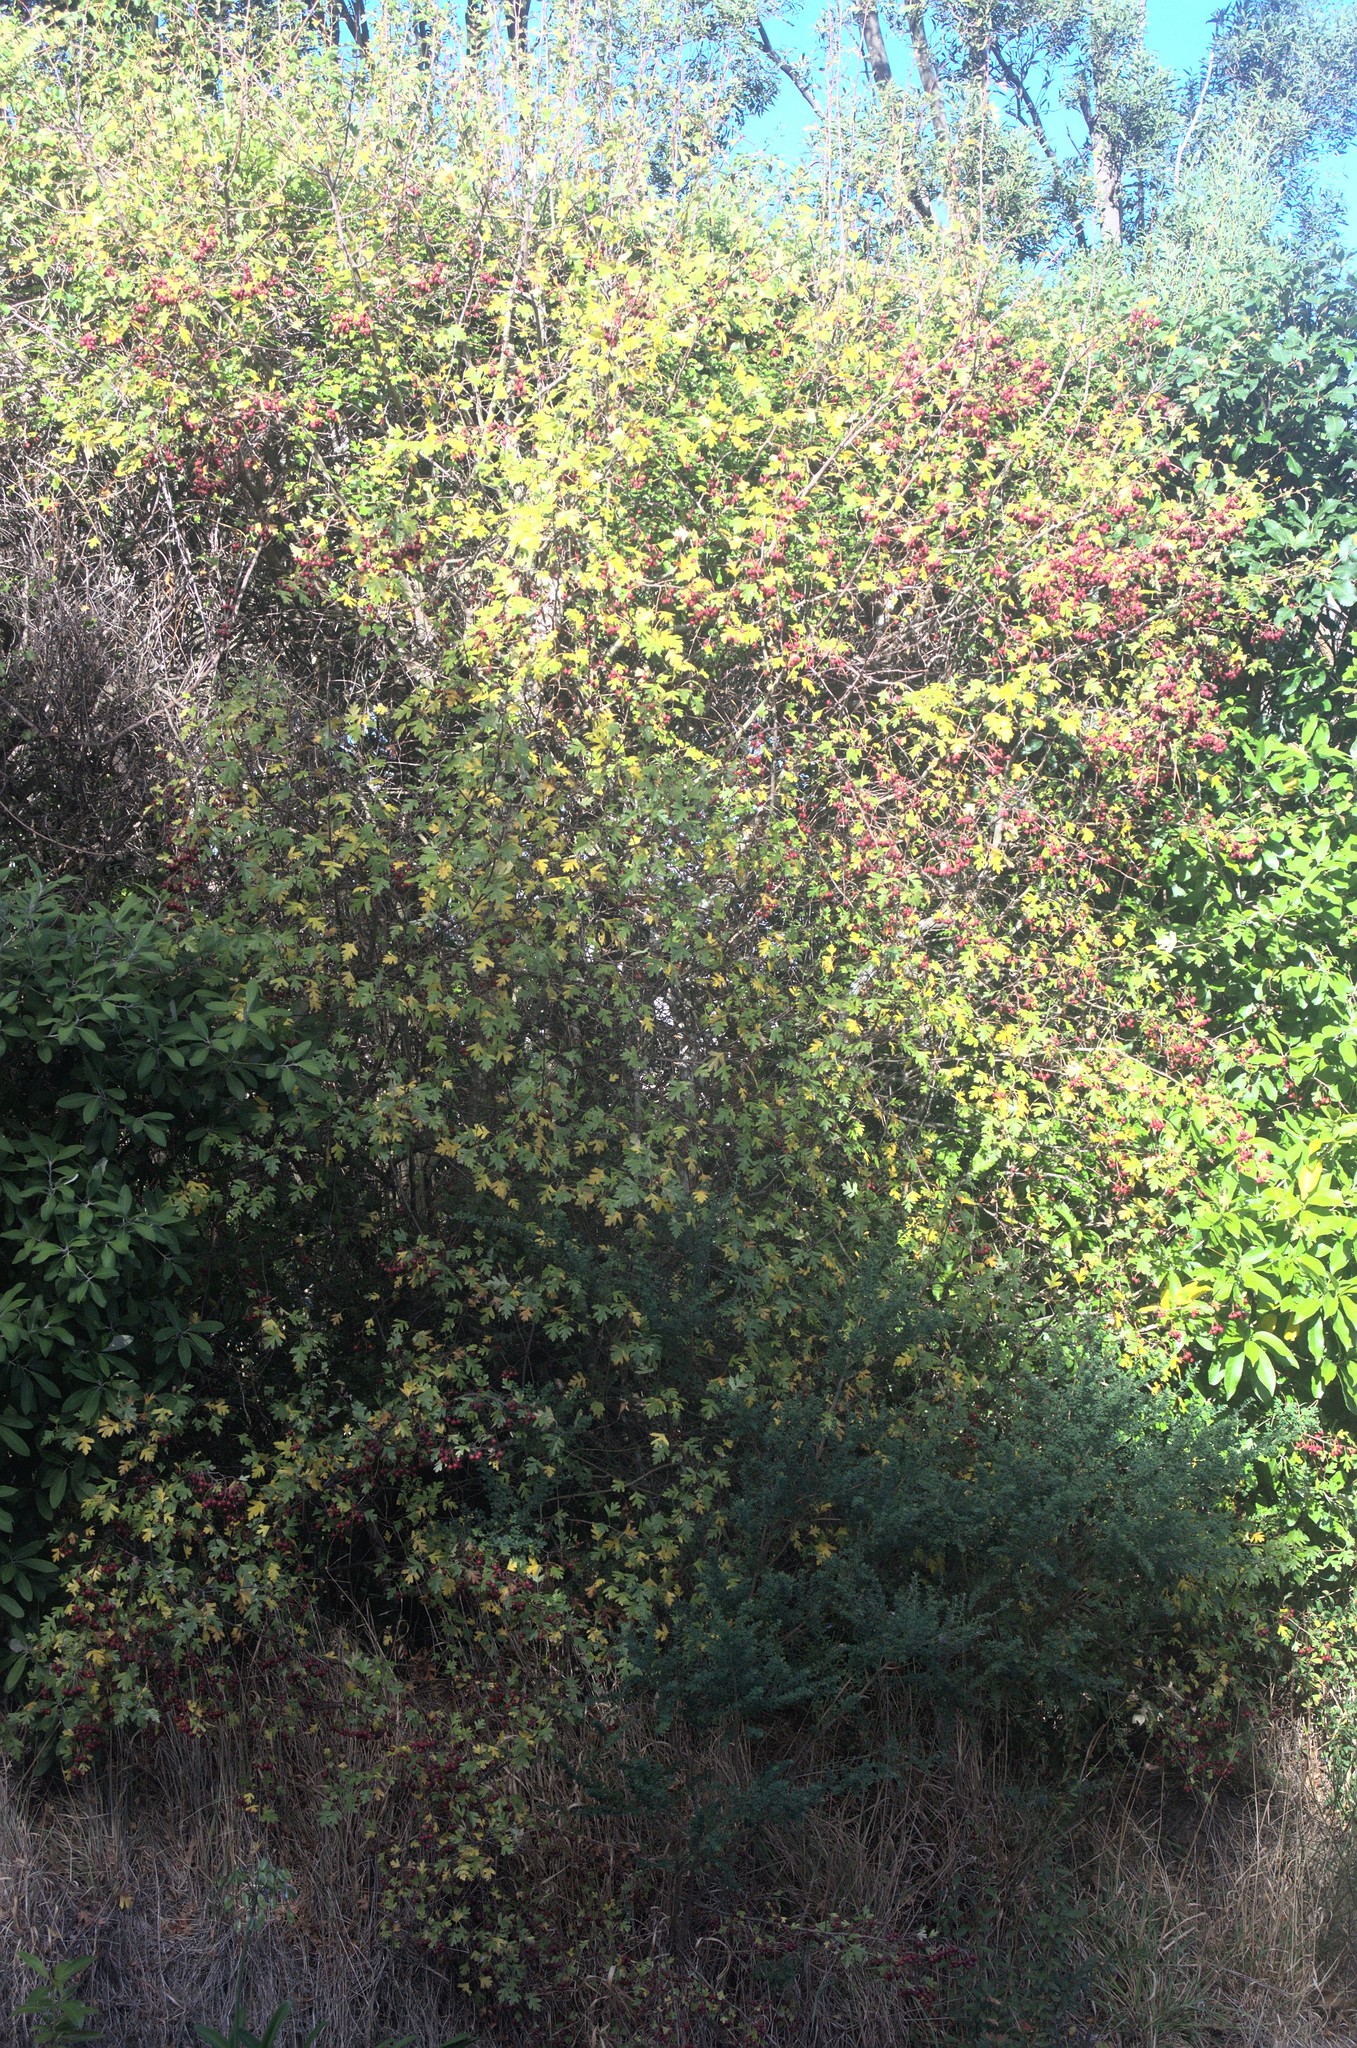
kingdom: Plantae
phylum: Tracheophyta
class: Magnoliopsida
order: Rosales
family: Rosaceae
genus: Crataegus
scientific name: Crataegus monogyna
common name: Hawthorn
